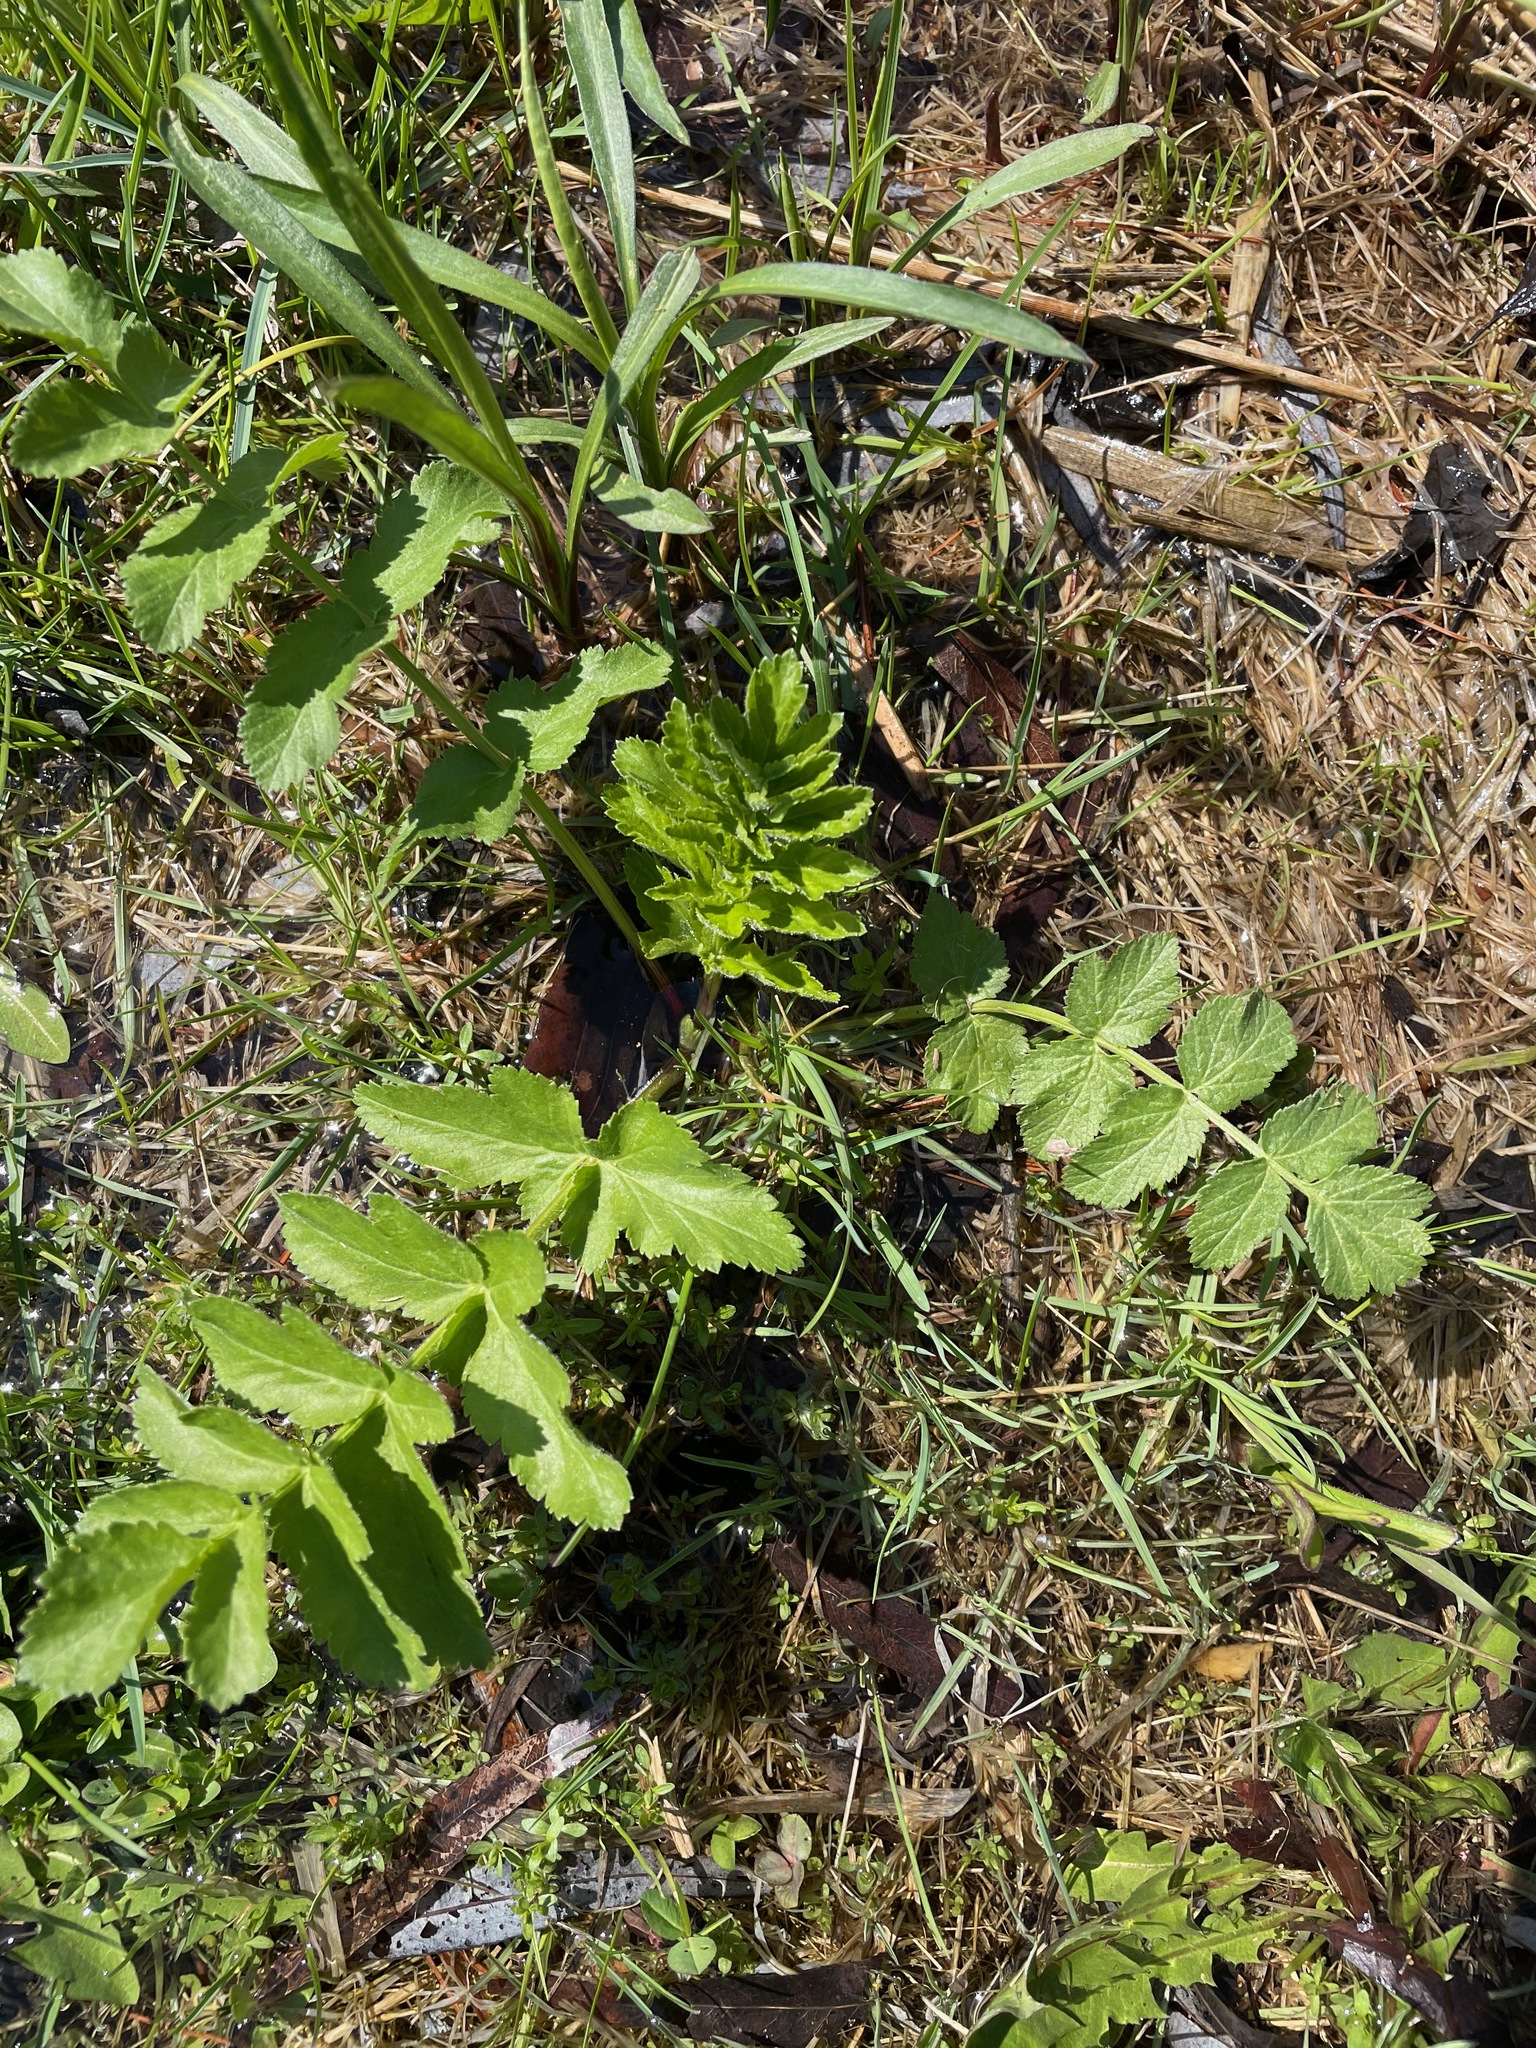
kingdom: Plantae
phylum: Tracheophyta
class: Magnoliopsida
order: Apiales
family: Apiaceae
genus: Pastinaca
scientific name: Pastinaca sativa
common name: Wild parsnip
